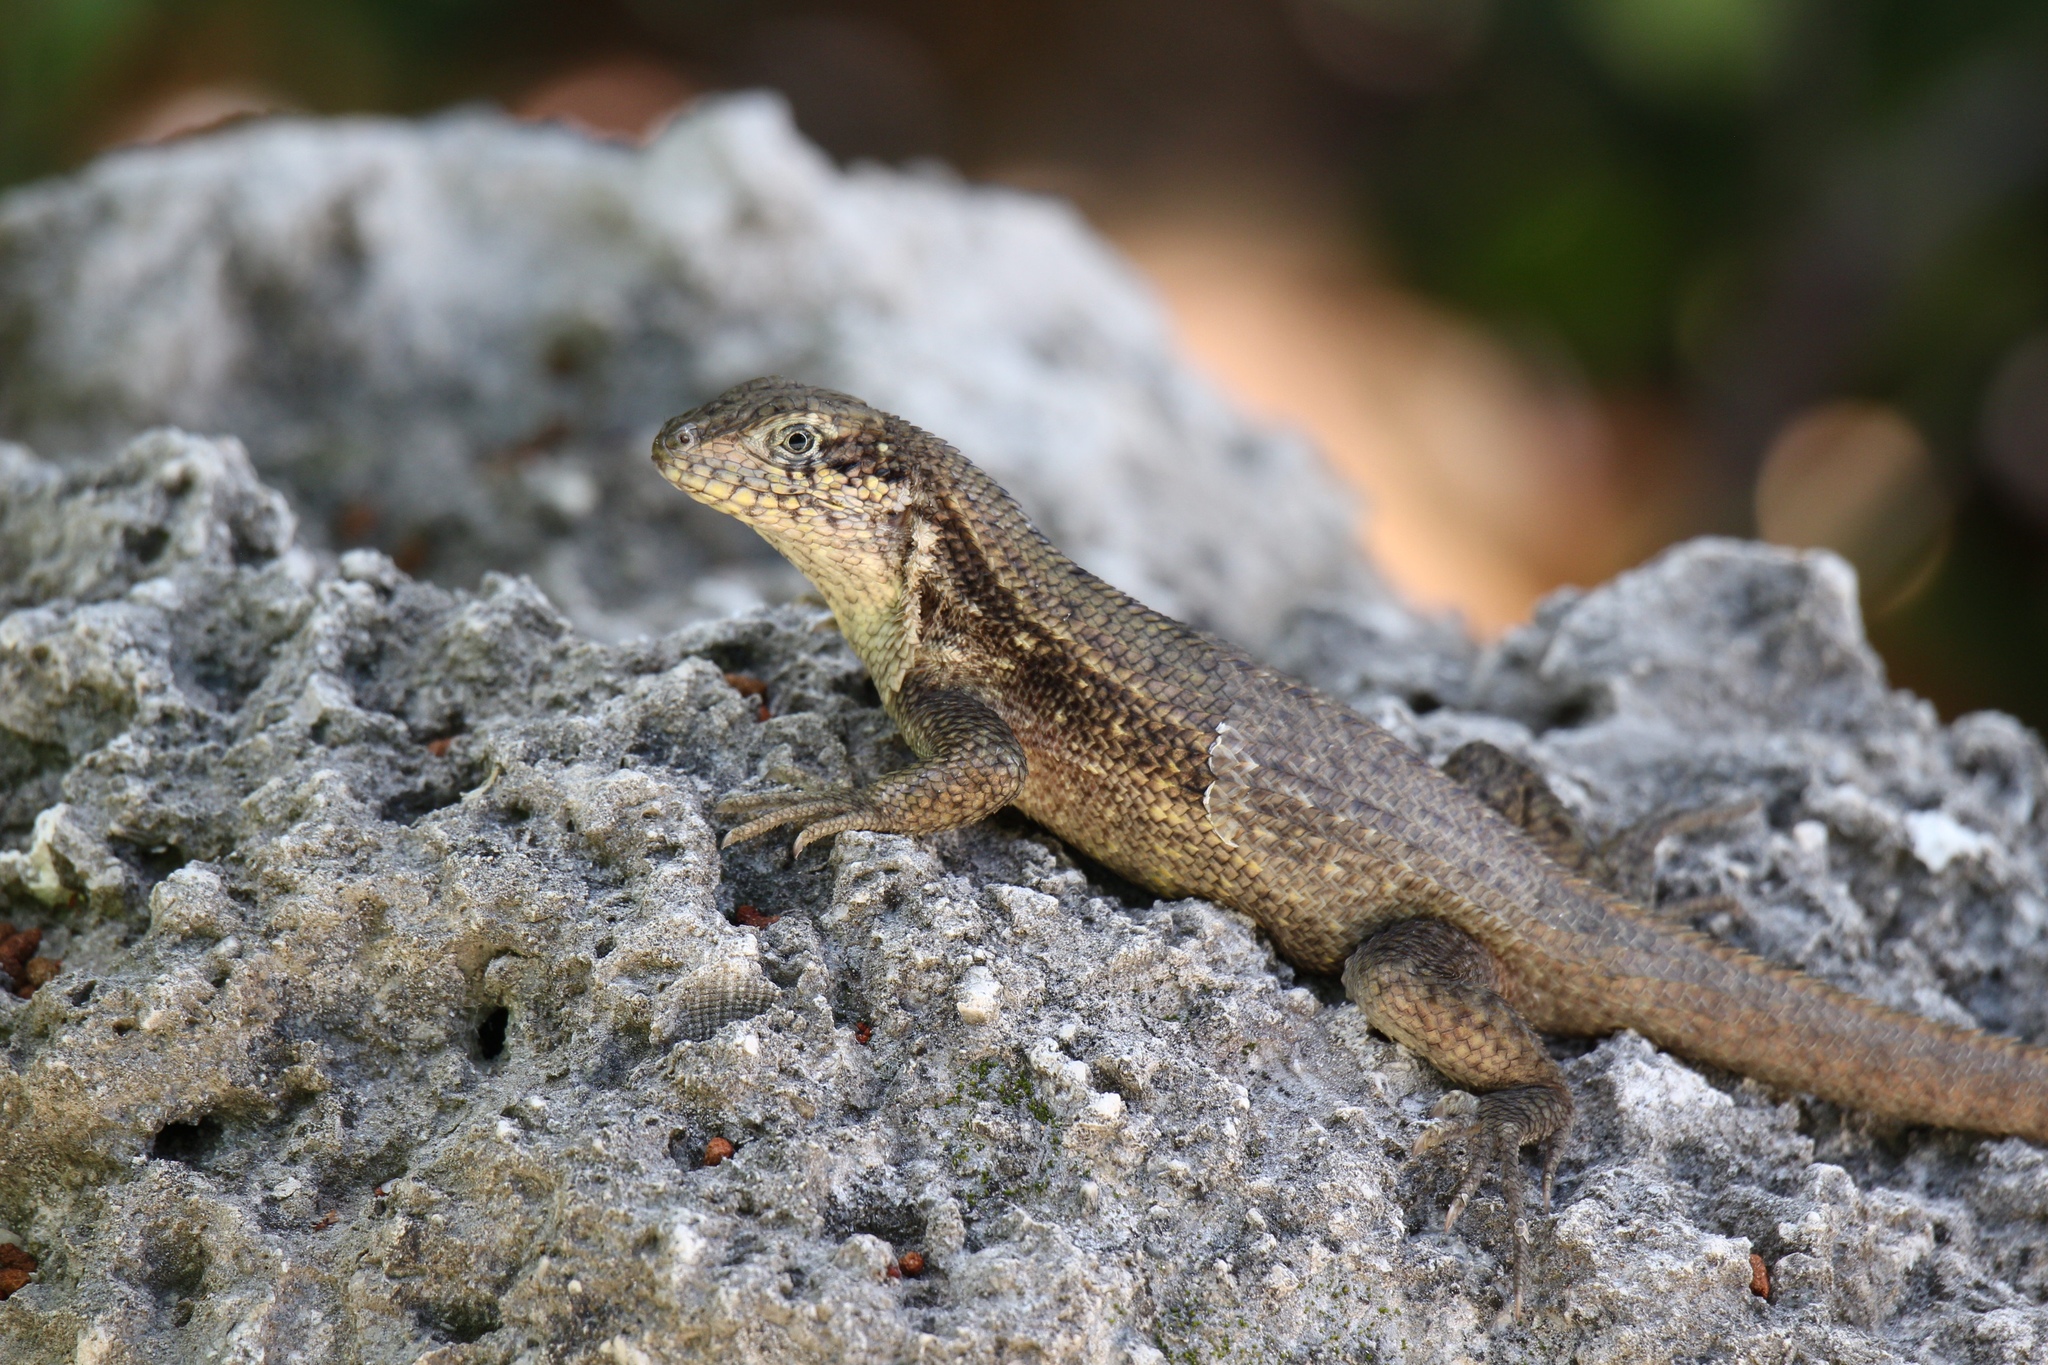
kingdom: Animalia
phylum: Chordata
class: Squamata
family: Leiocephalidae
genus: Leiocephalus
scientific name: Leiocephalus carinatus
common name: Northern curly-tailed lizard
